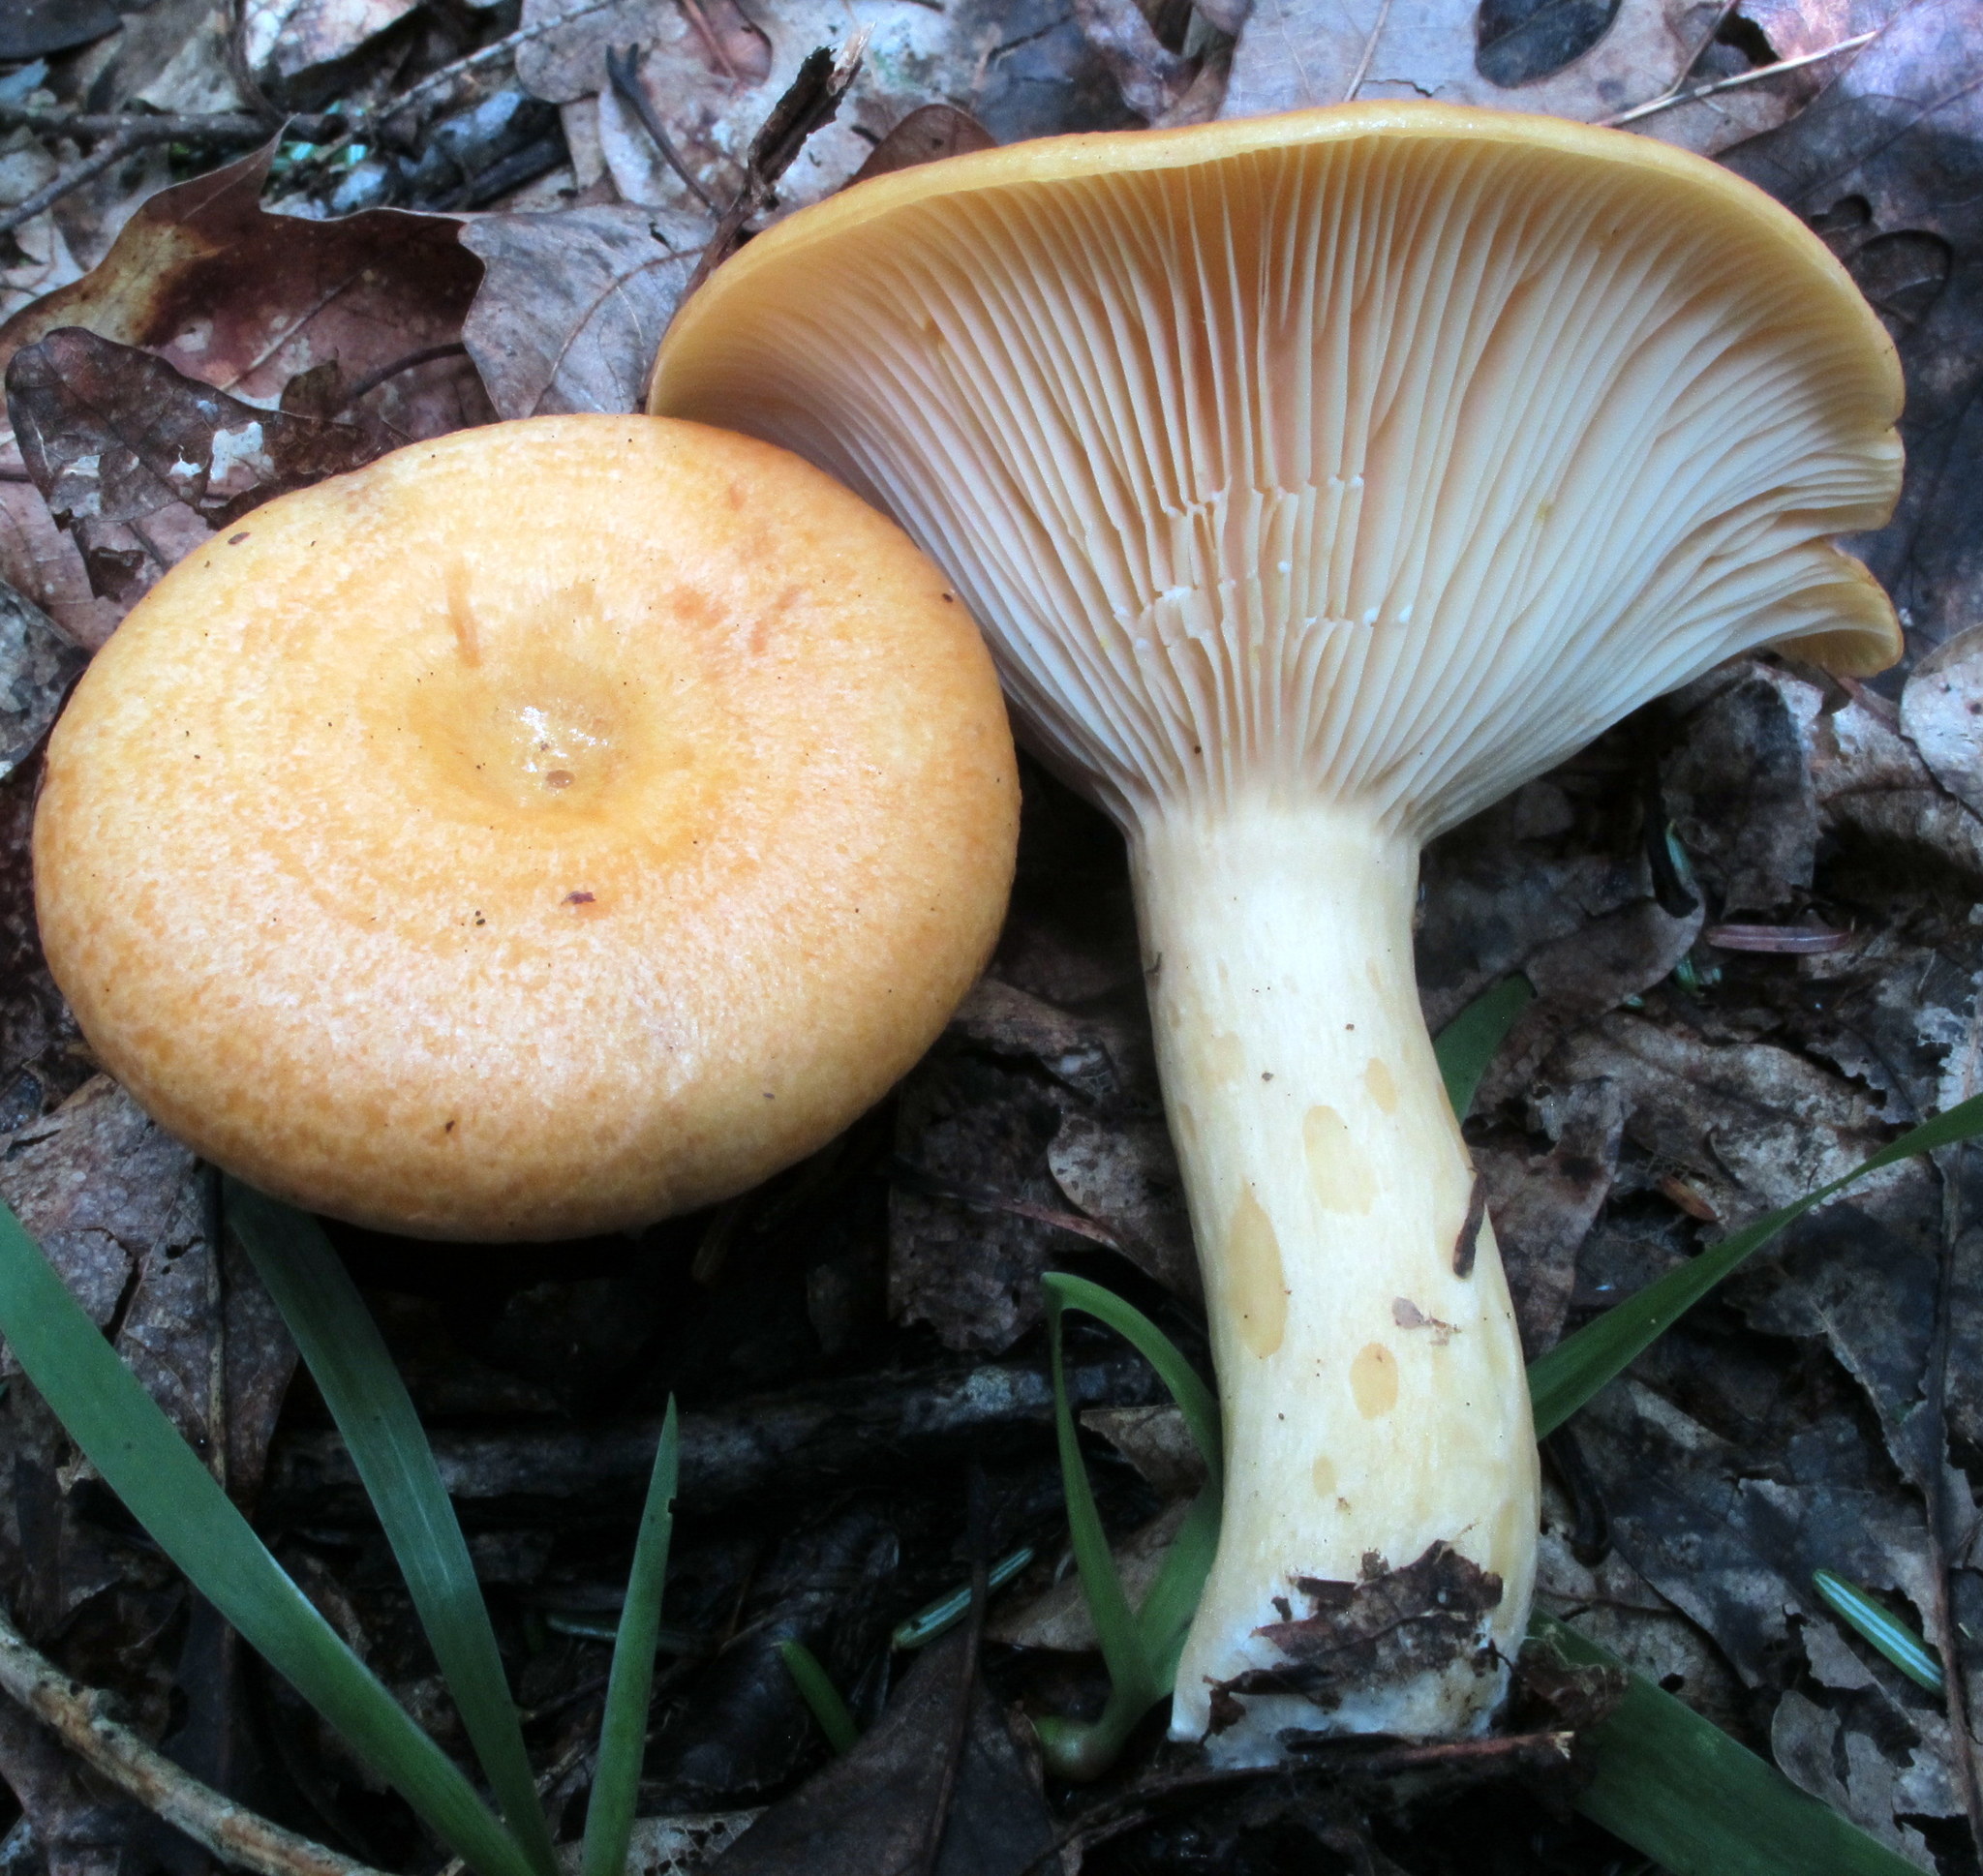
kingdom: Fungi
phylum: Basidiomycota
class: Agaricomycetes
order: Russulales
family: Russulaceae
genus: Lactarius
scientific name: Lactarius croceus
